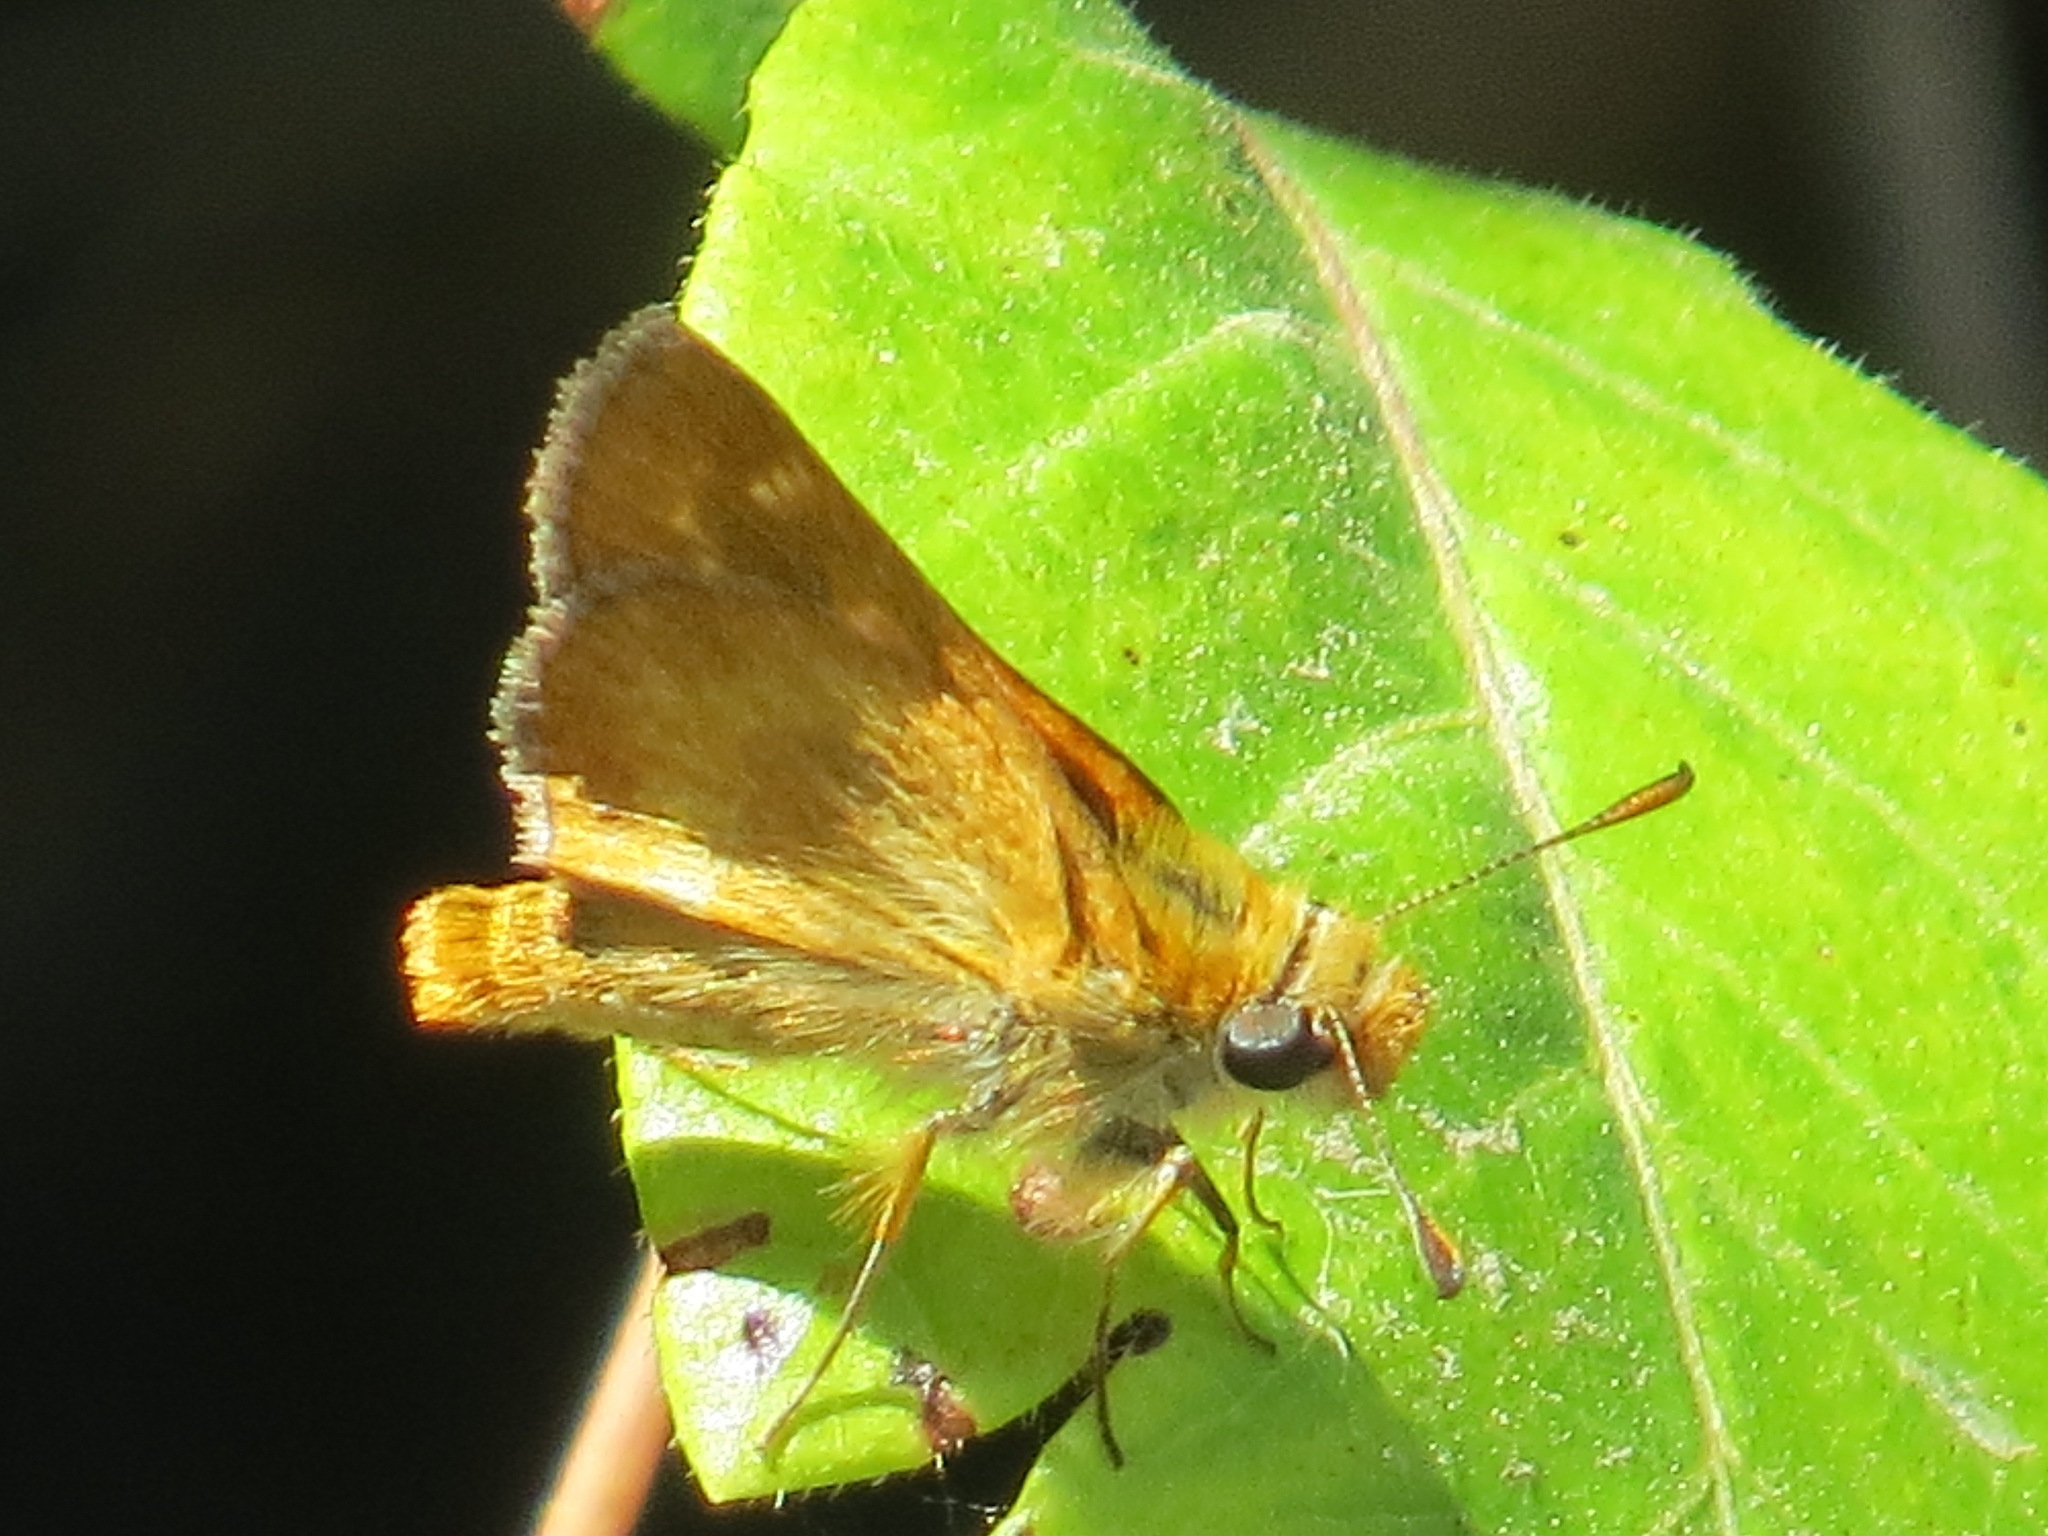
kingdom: Animalia
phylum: Arthropoda
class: Insecta
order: Lepidoptera
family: Hesperiidae
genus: Ochlodes
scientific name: Ochlodes agricola
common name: Rural skipper
